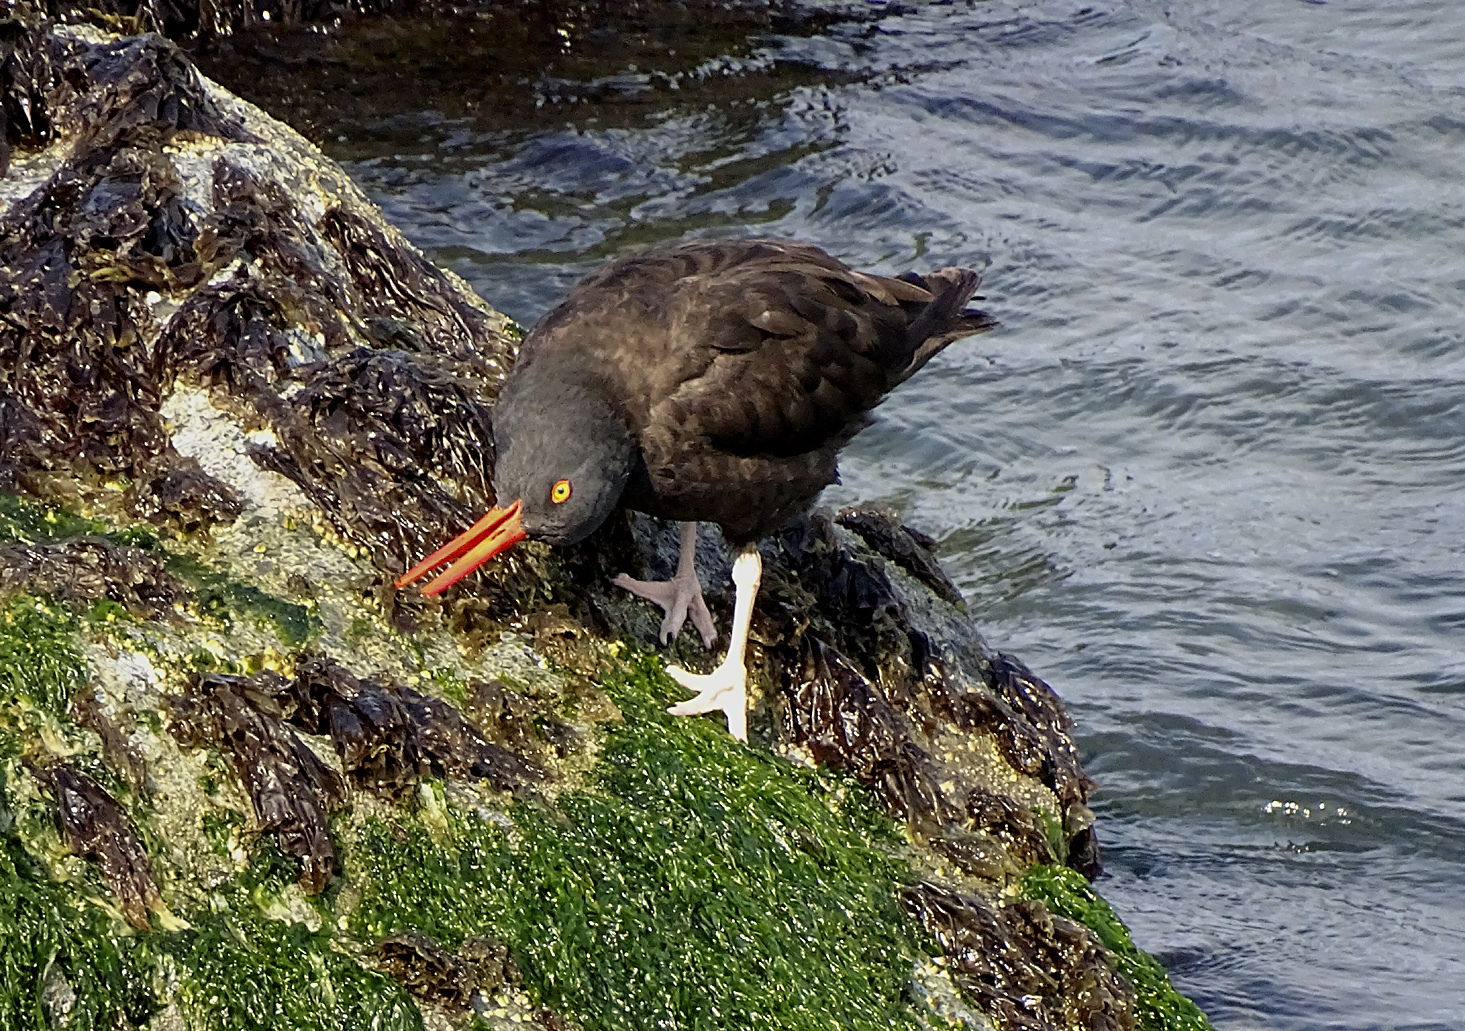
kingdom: Animalia
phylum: Chordata
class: Aves
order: Charadriiformes
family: Haematopodidae
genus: Haematopus
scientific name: Haematopus bachmani
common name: Black oystercatcher
